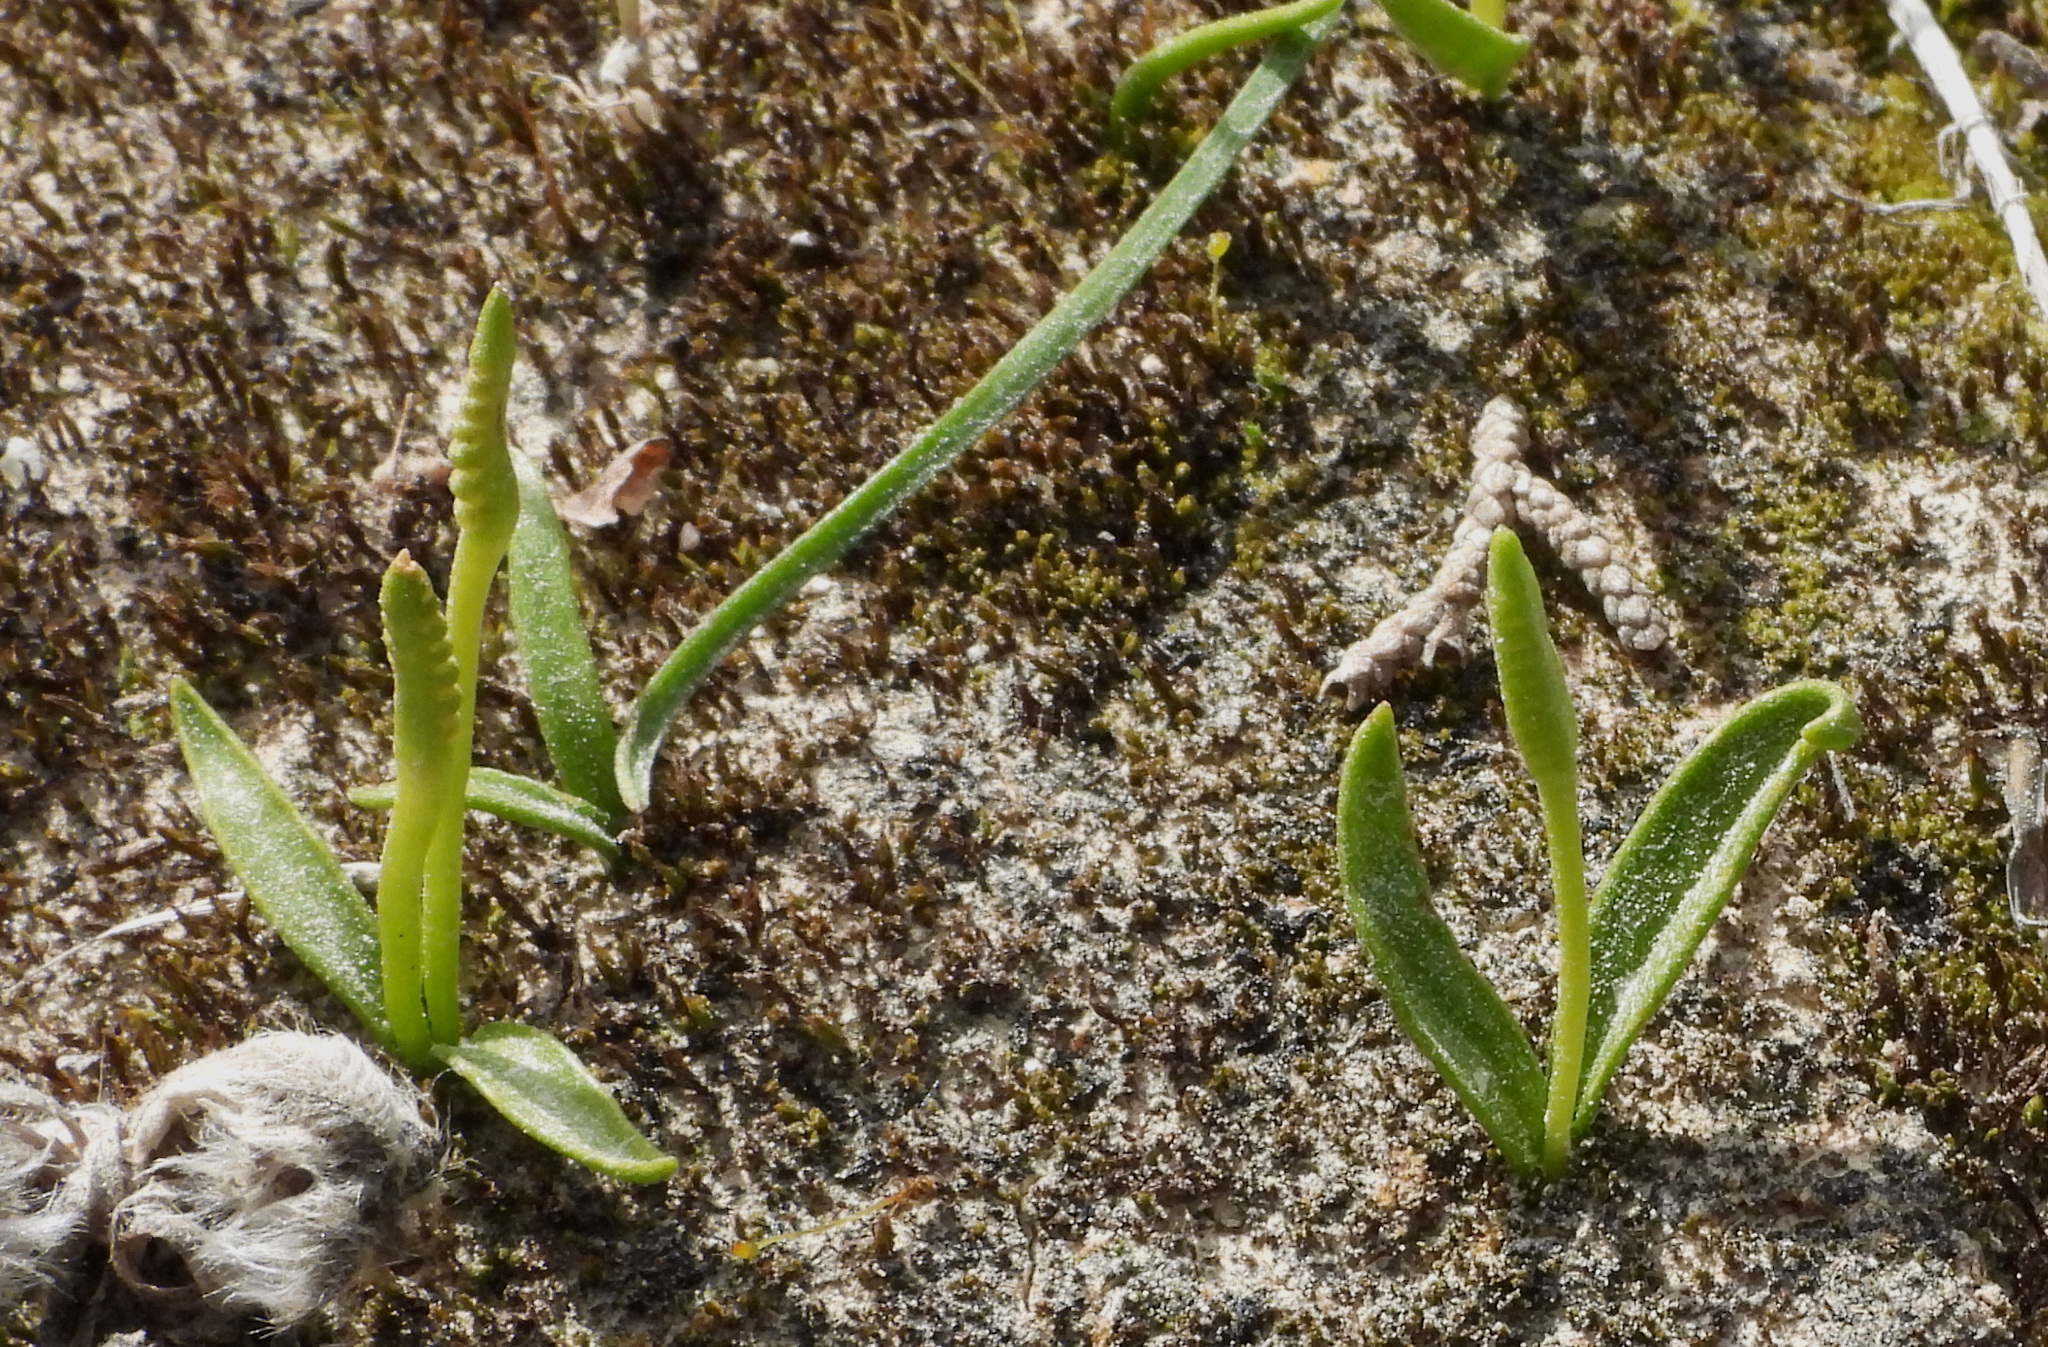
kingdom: Plantae
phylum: Tracheophyta
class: Polypodiopsida
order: Ophioglossales
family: Ophioglossaceae
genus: Ophioglossum
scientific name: Ophioglossum lusitanicum
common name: Least adder's-tongue
